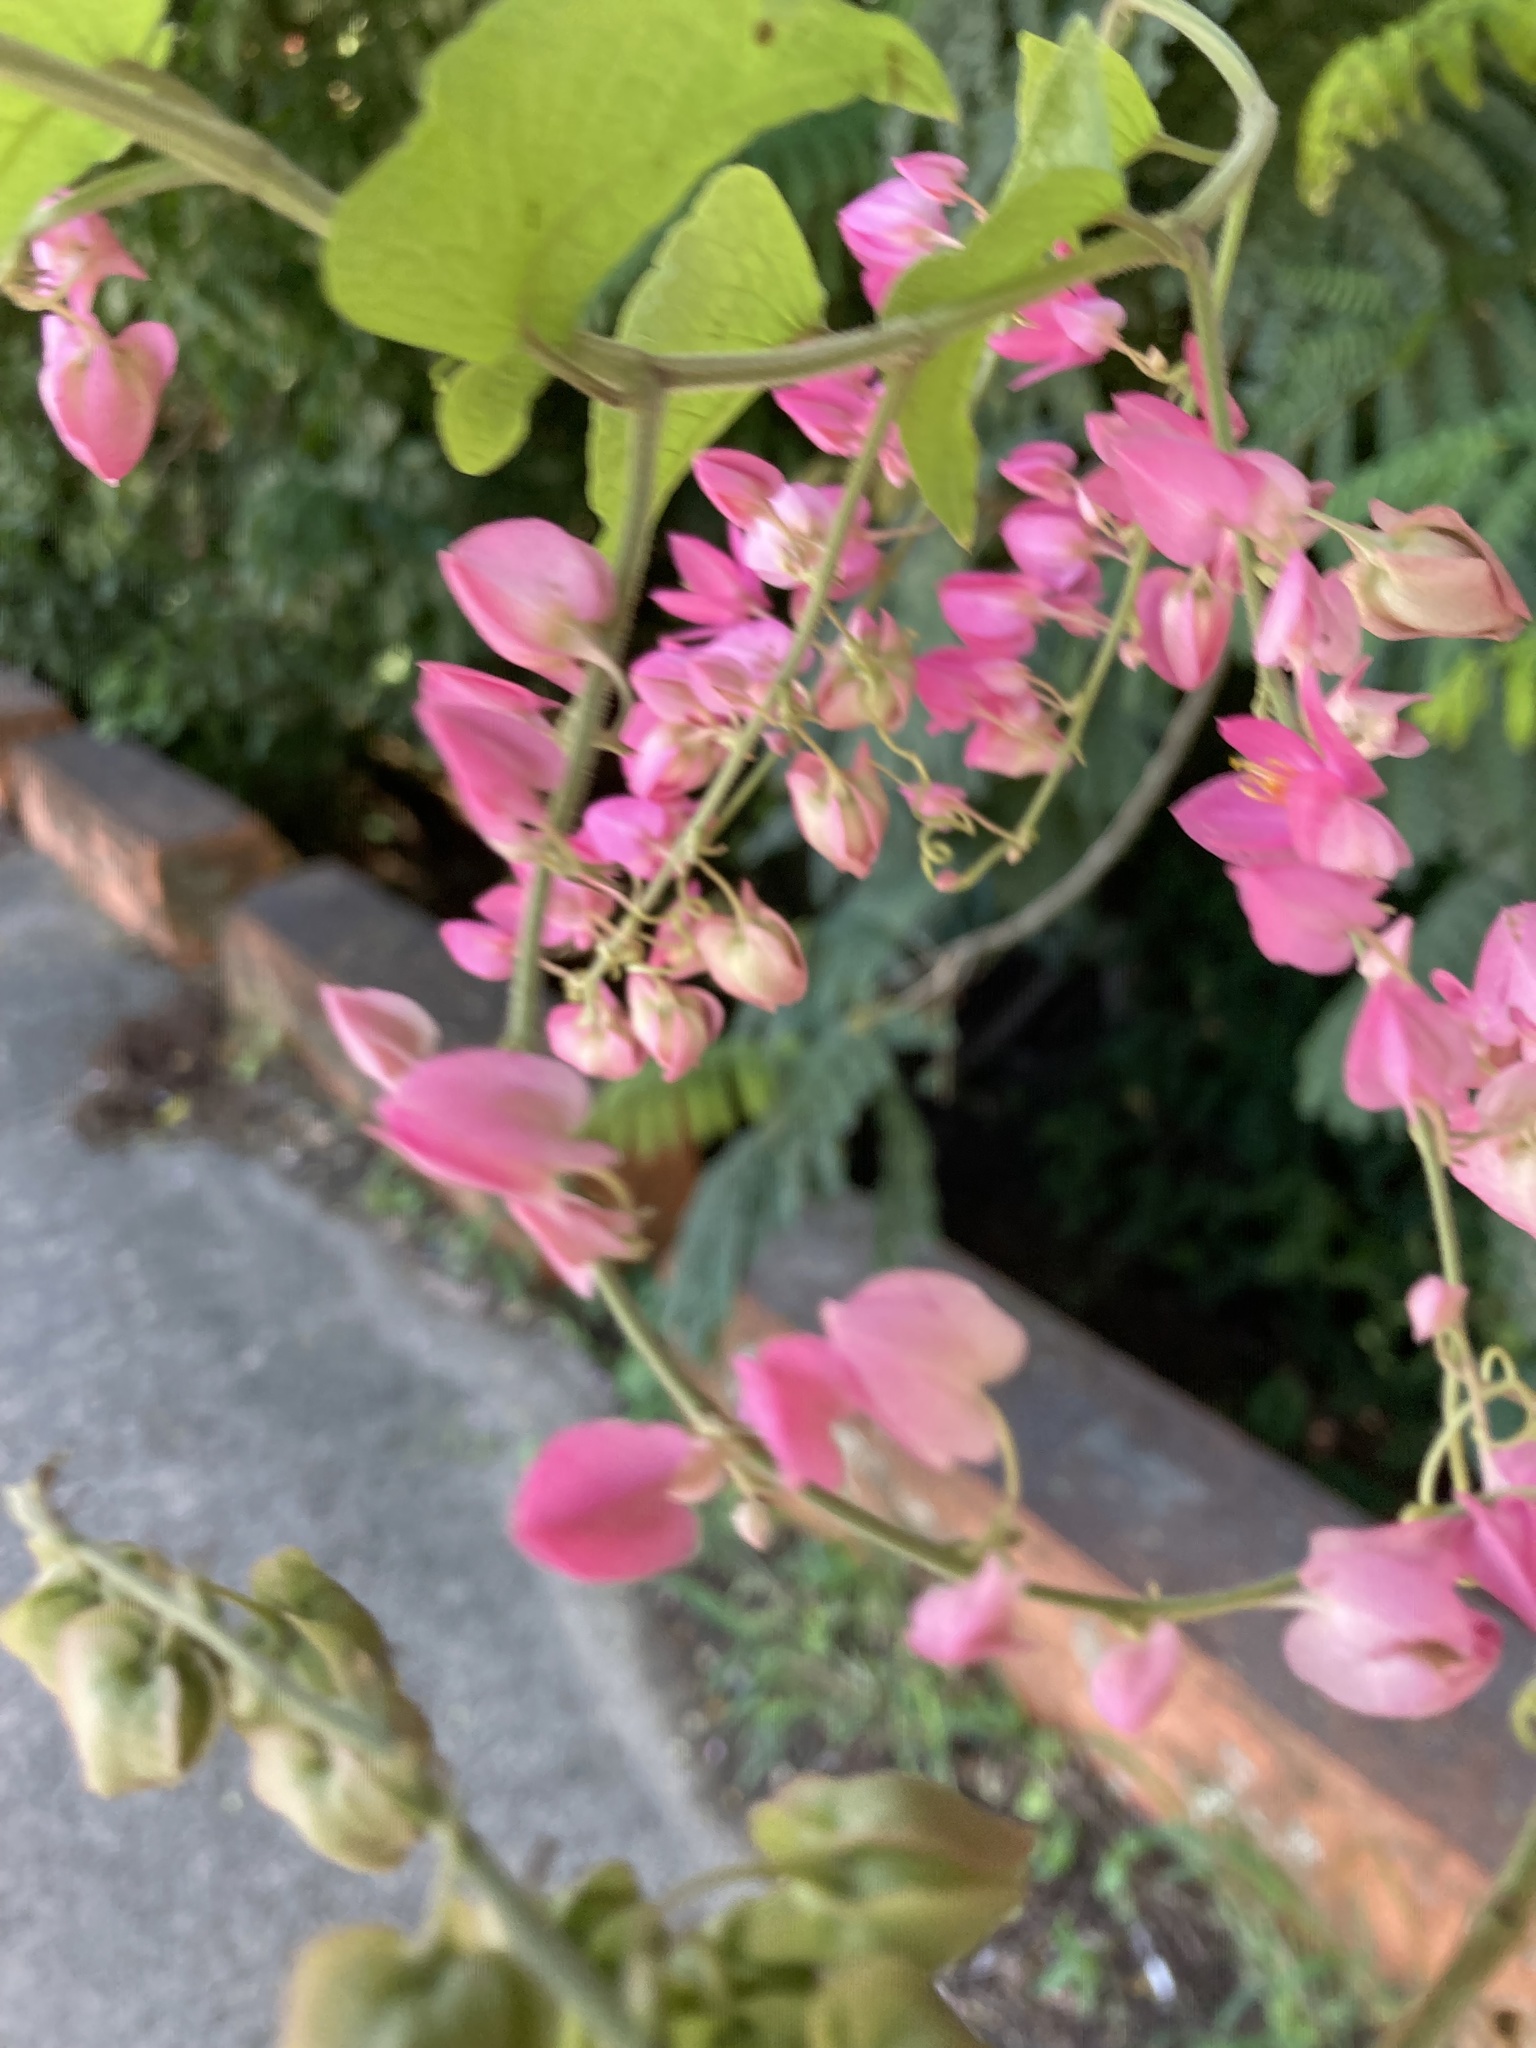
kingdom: Plantae
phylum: Tracheophyta
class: Magnoliopsida
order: Caryophyllales
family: Polygonaceae
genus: Antigonon
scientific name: Antigonon leptopus
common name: Coral vine
